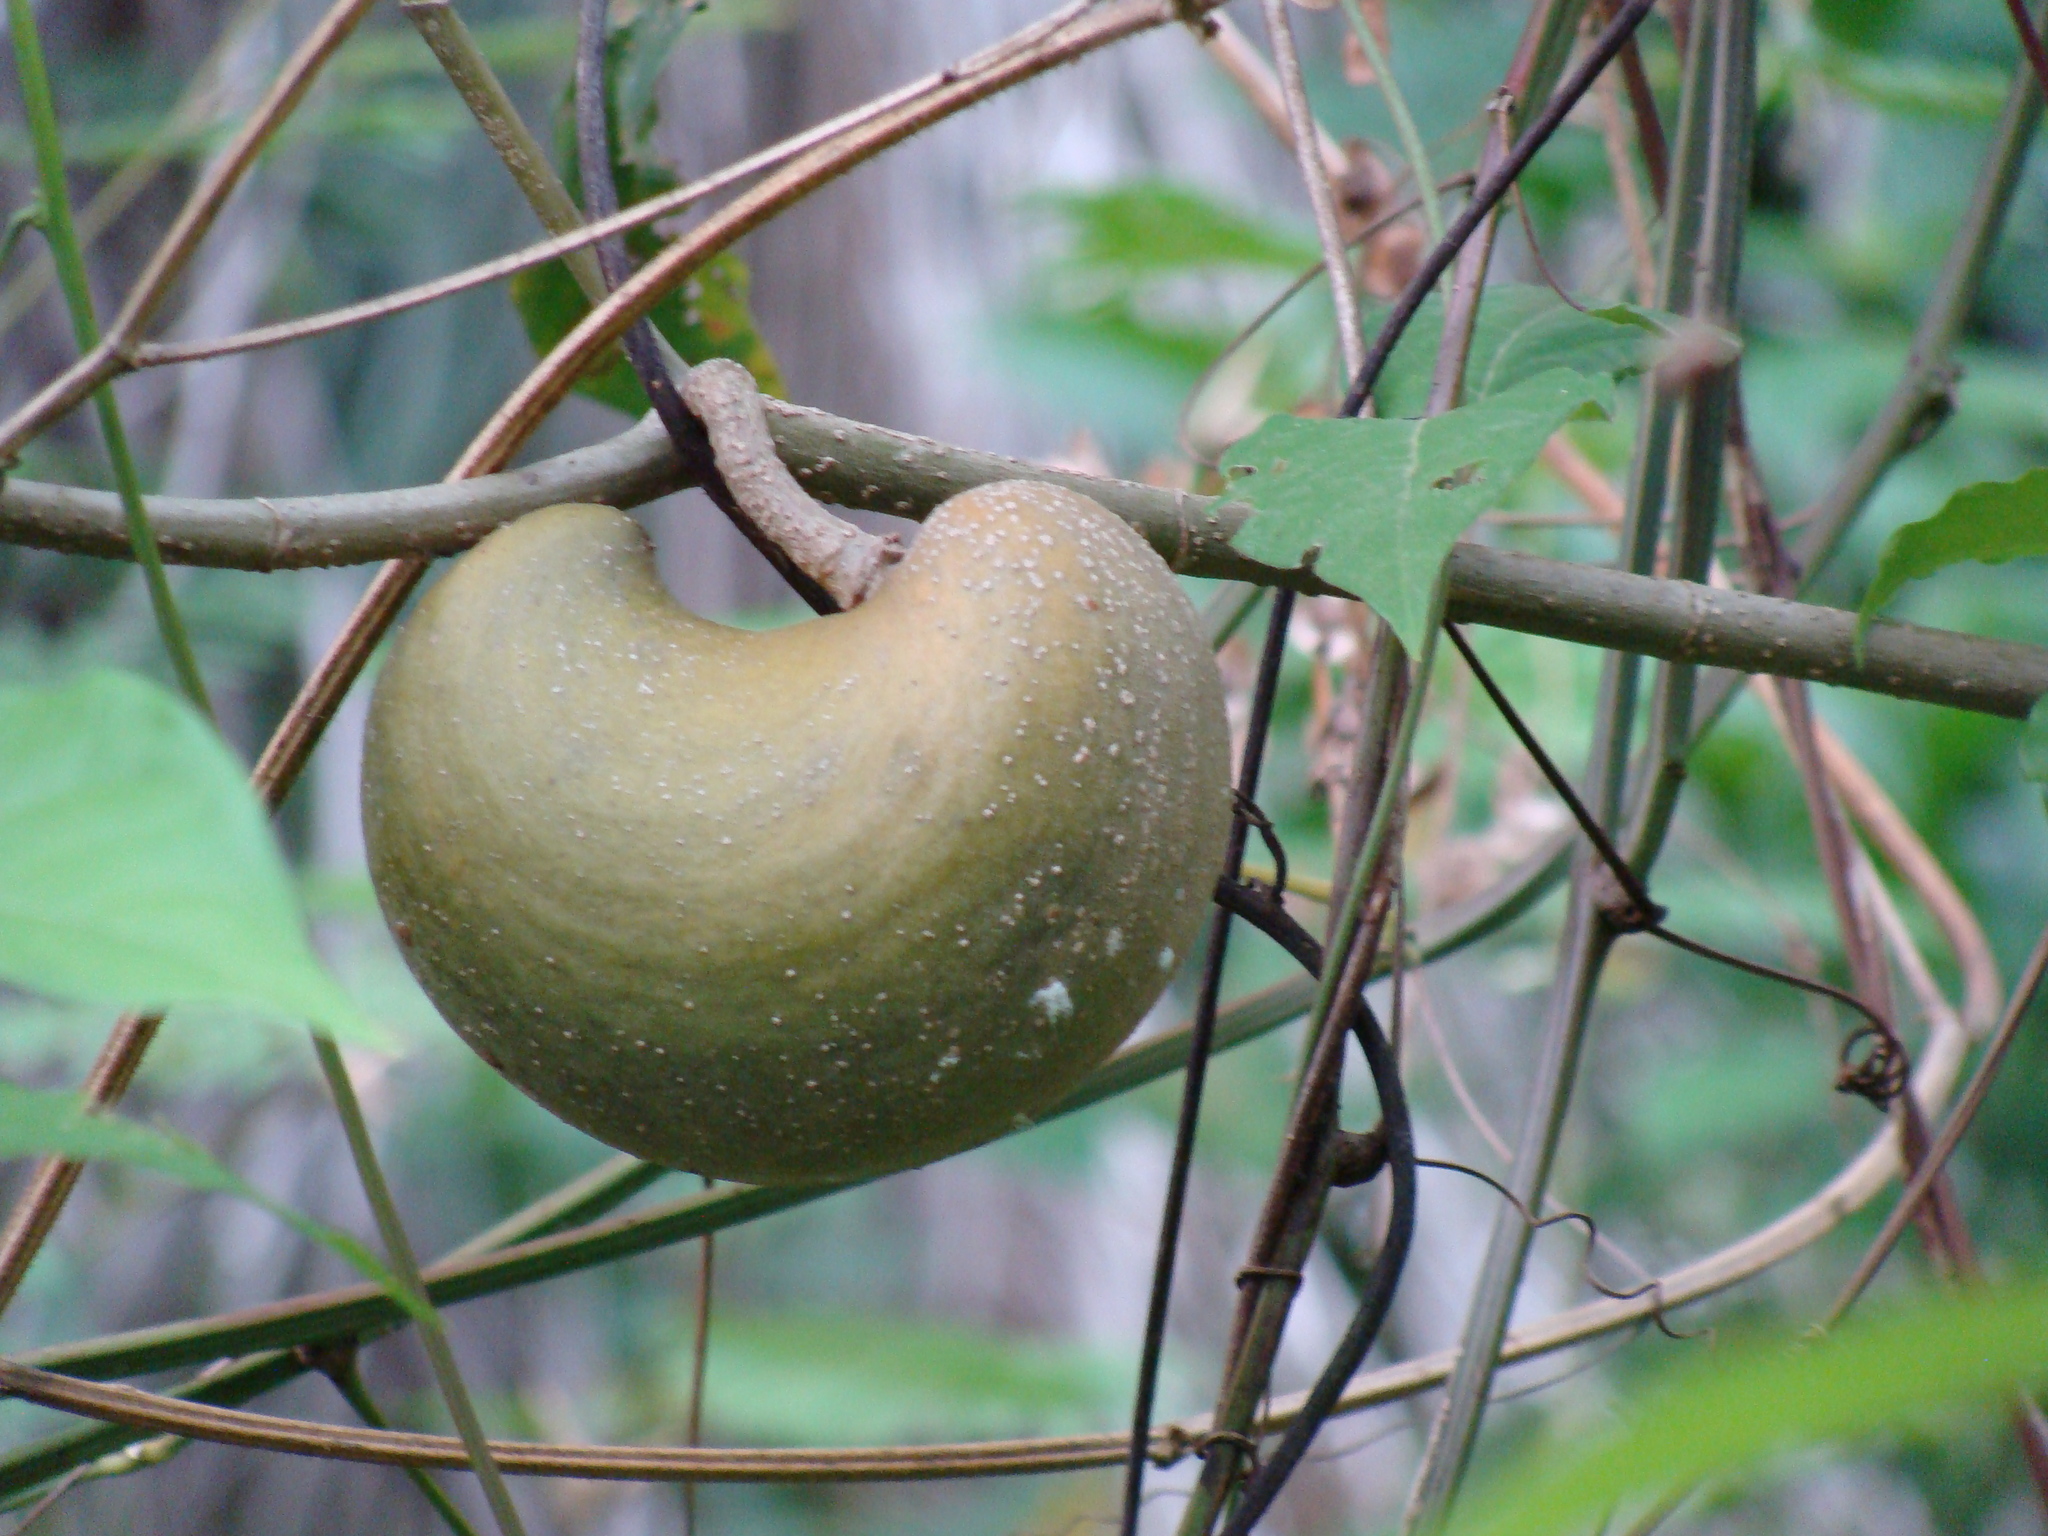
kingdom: Plantae
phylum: Tracheophyta
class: Magnoliopsida
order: Gentianales
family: Apocynaceae
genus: Tabernaemontana
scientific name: Tabernaemontana donnell-smithii
